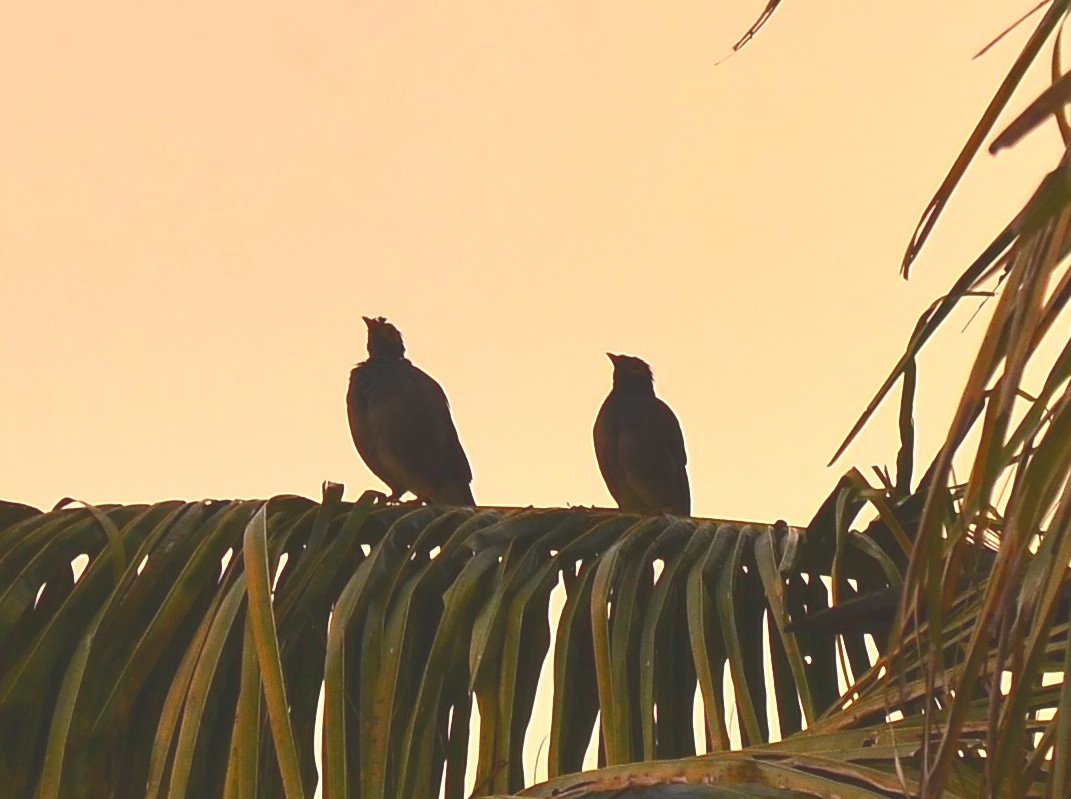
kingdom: Animalia
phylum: Chordata
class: Aves
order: Passeriformes
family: Sturnidae
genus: Acridotheres
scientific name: Acridotheres tristis
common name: Common myna
